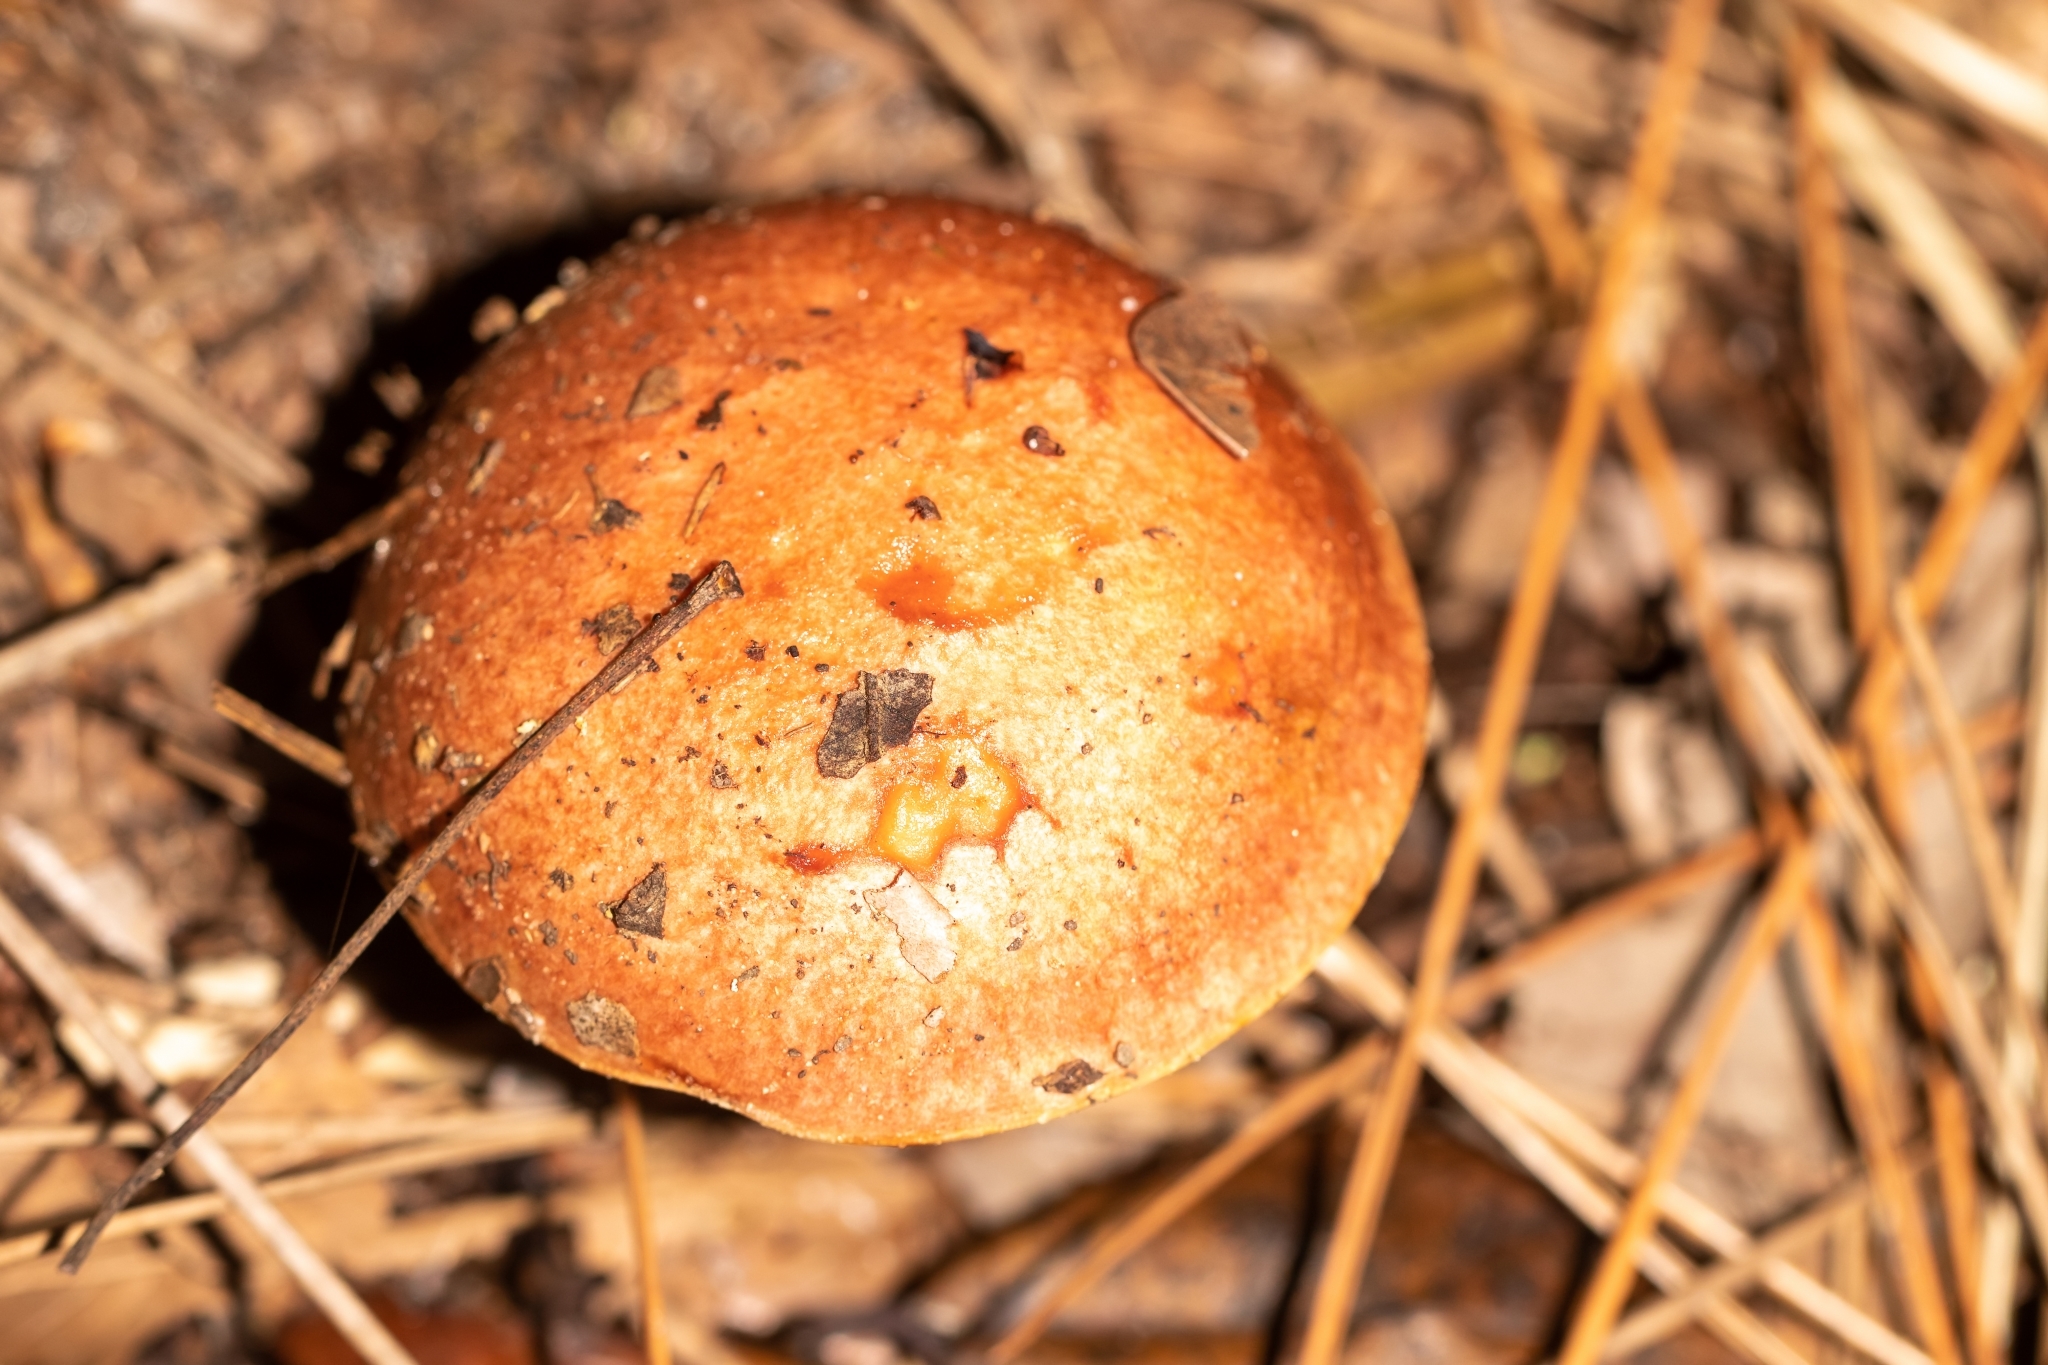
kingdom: Fungi
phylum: Basidiomycota
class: Agaricomycetes
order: Boletales
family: Boletaceae
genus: Aureoboletus
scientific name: Aureoboletus auriporus
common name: Sour gold-pored bolete
